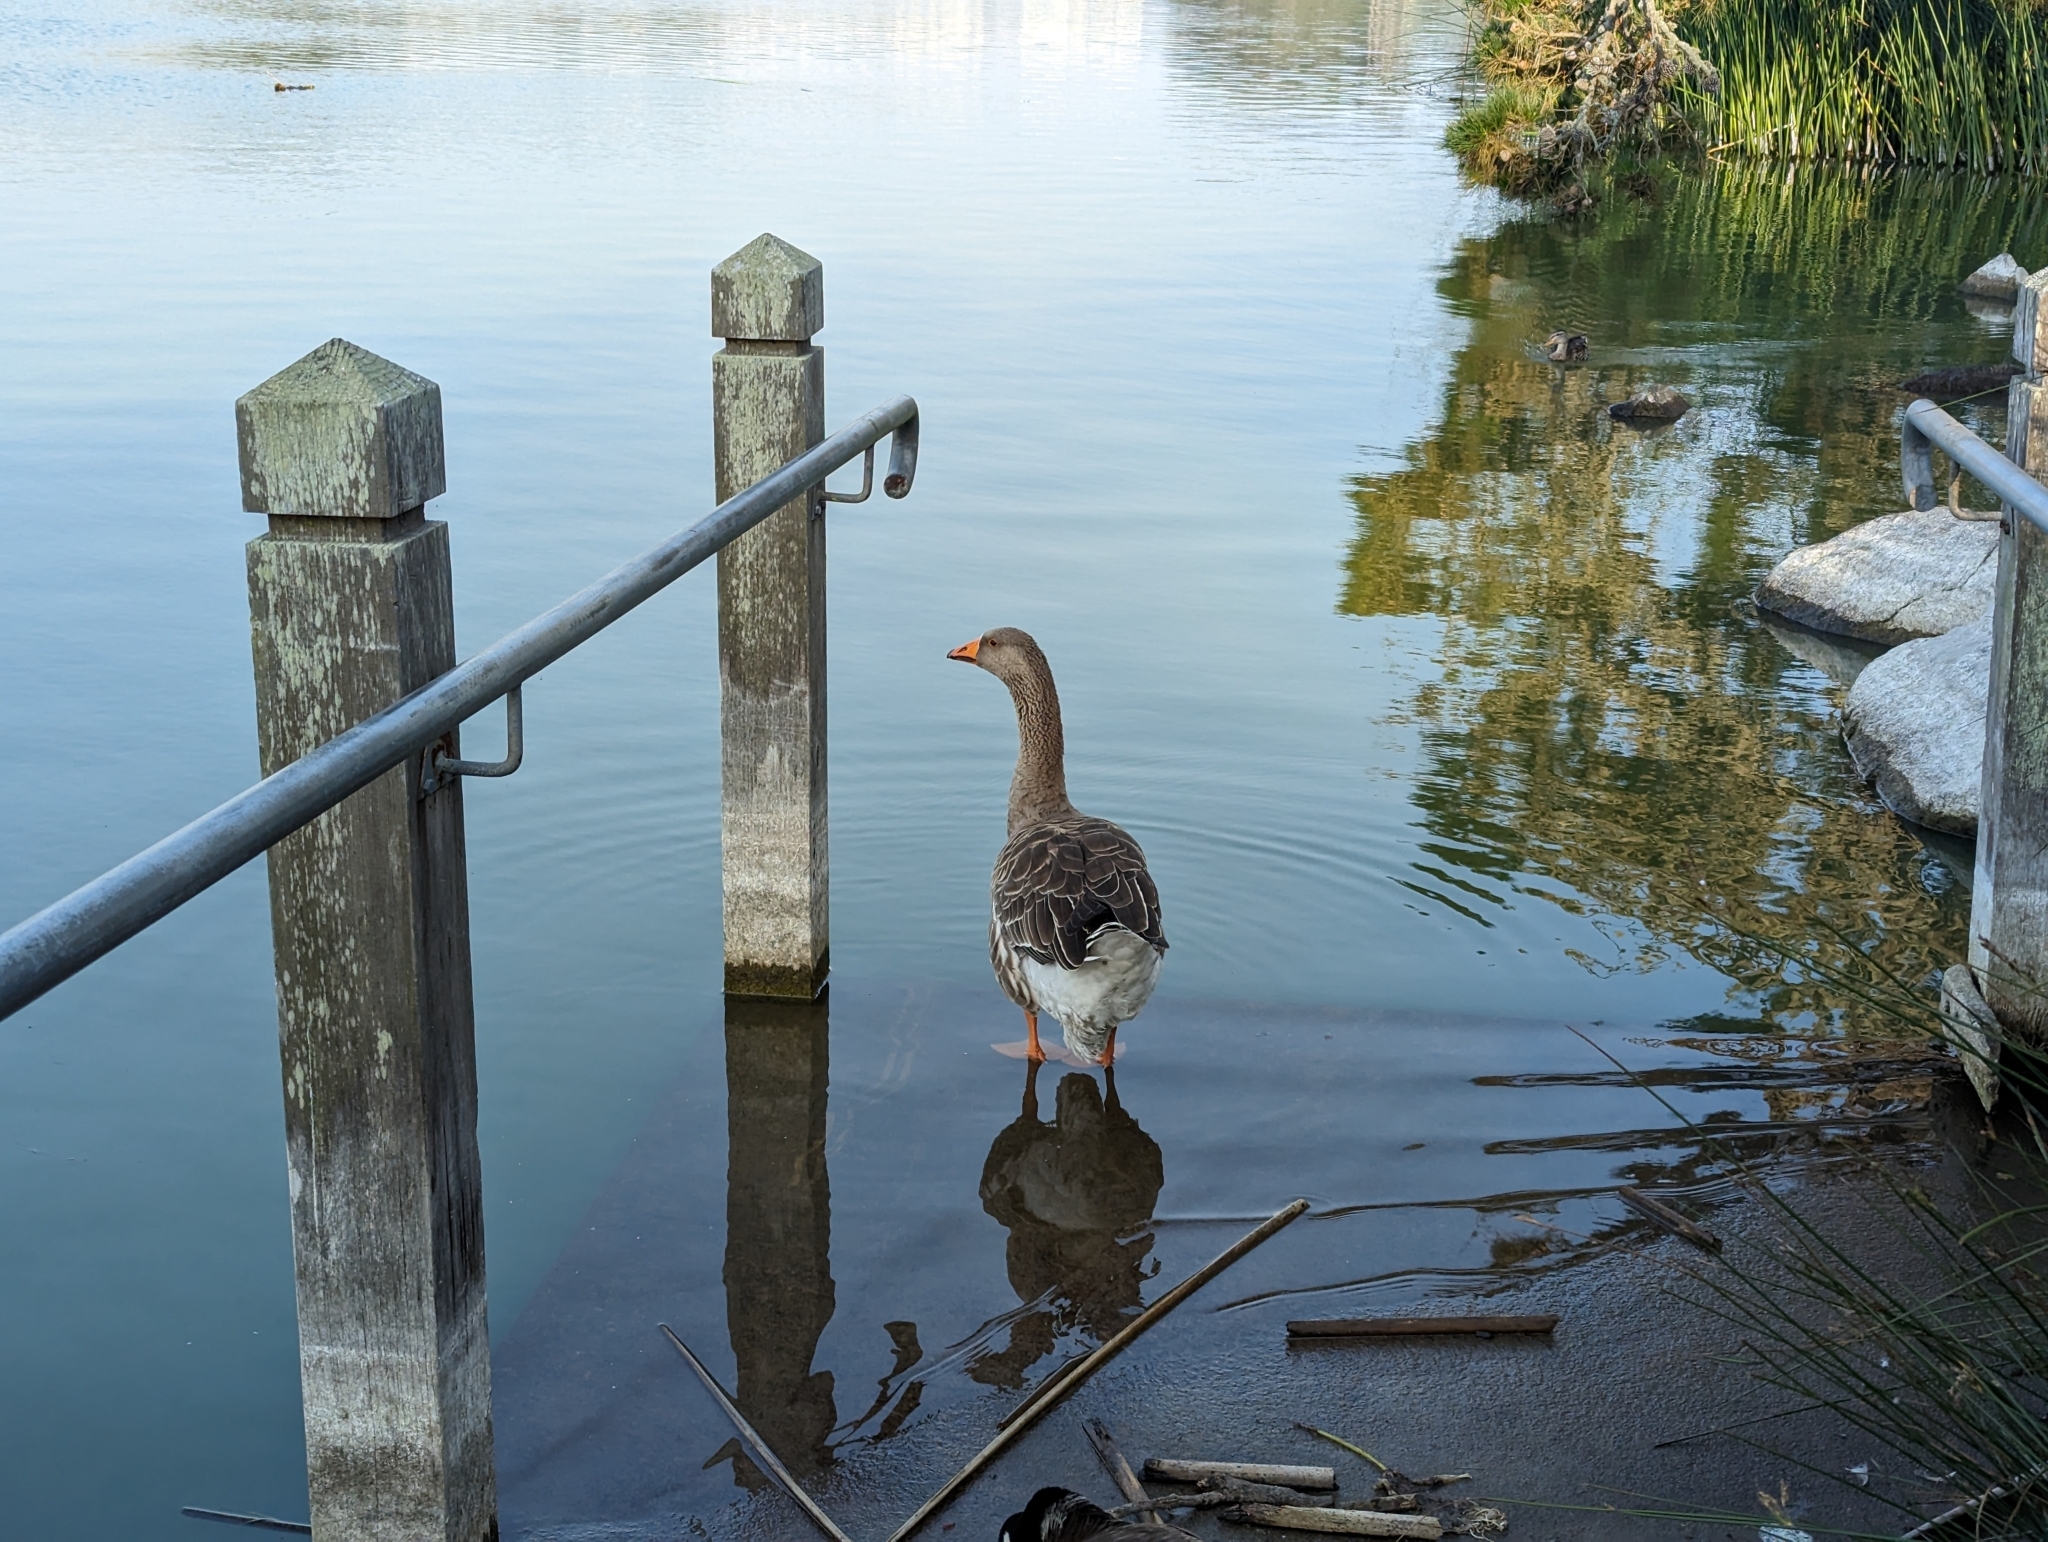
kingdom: Animalia
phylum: Chordata
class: Aves
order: Anseriformes
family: Anatidae
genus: Anser
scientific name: Anser
